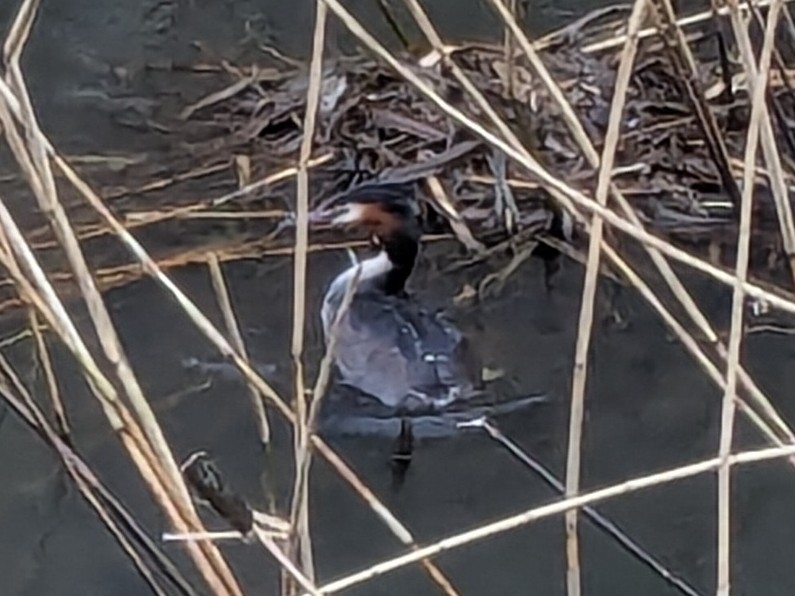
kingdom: Animalia
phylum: Chordata
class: Aves
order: Podicipediformes
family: Podicipedidae
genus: Podiceps
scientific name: Podiceps cristatus
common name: Great crested grebe
